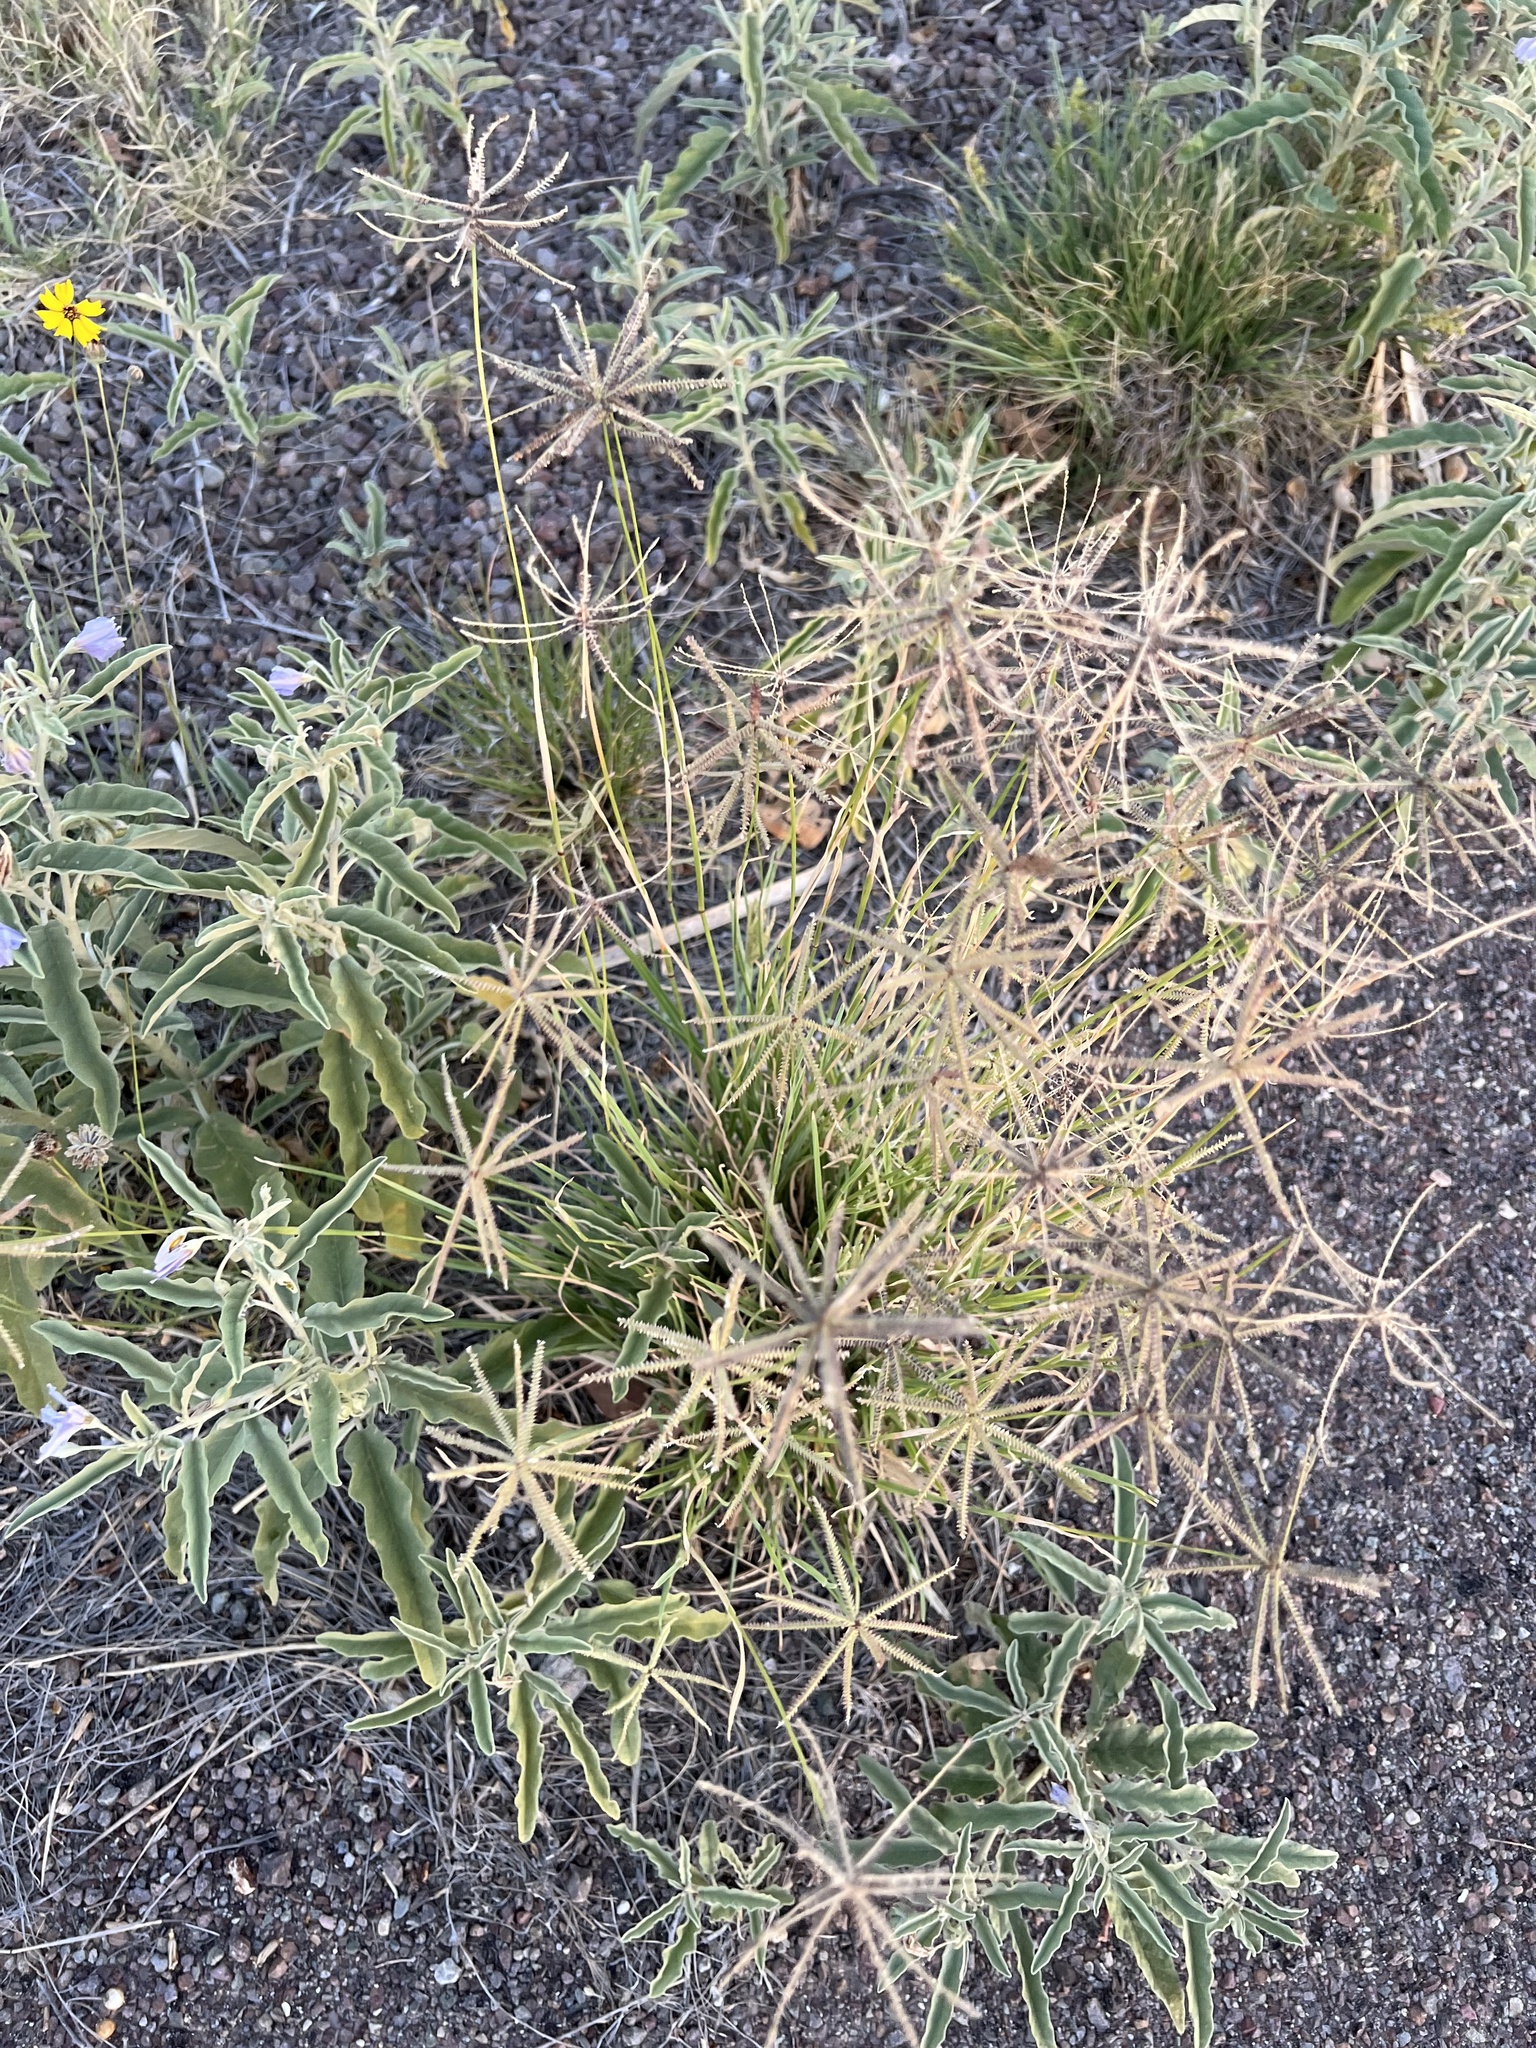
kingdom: Plantae
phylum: Tracheophyta
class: Liliopsida
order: Poales
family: Poaceae
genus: Chloris
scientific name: Chloris cucullata
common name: Hooded windmill grass
